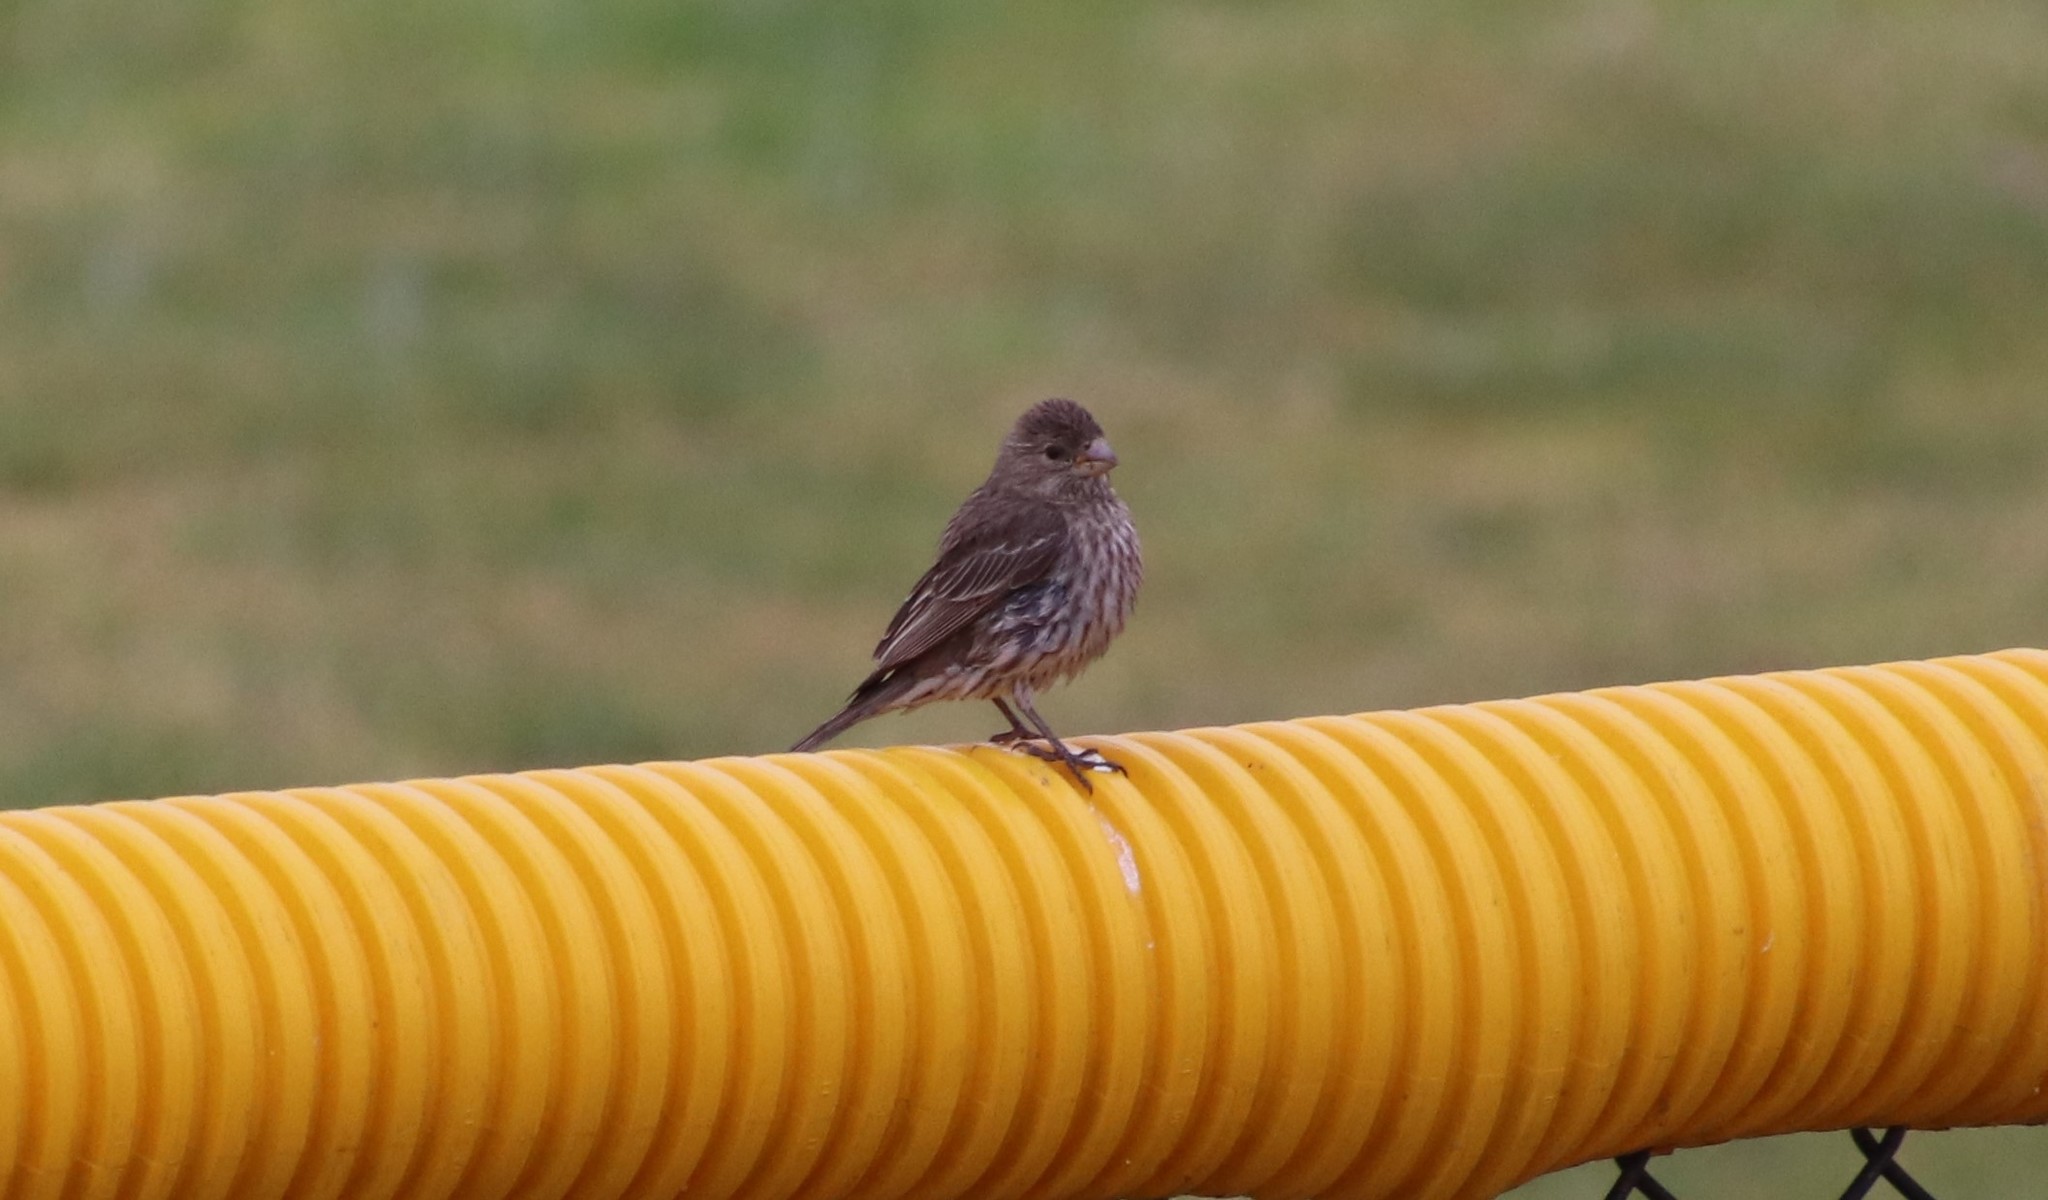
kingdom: Animalia
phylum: Chordata
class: Aves
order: Passeriformes
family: Fringillidae
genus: Haemorhous
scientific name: Haemorhous mexicanus
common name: House finch
